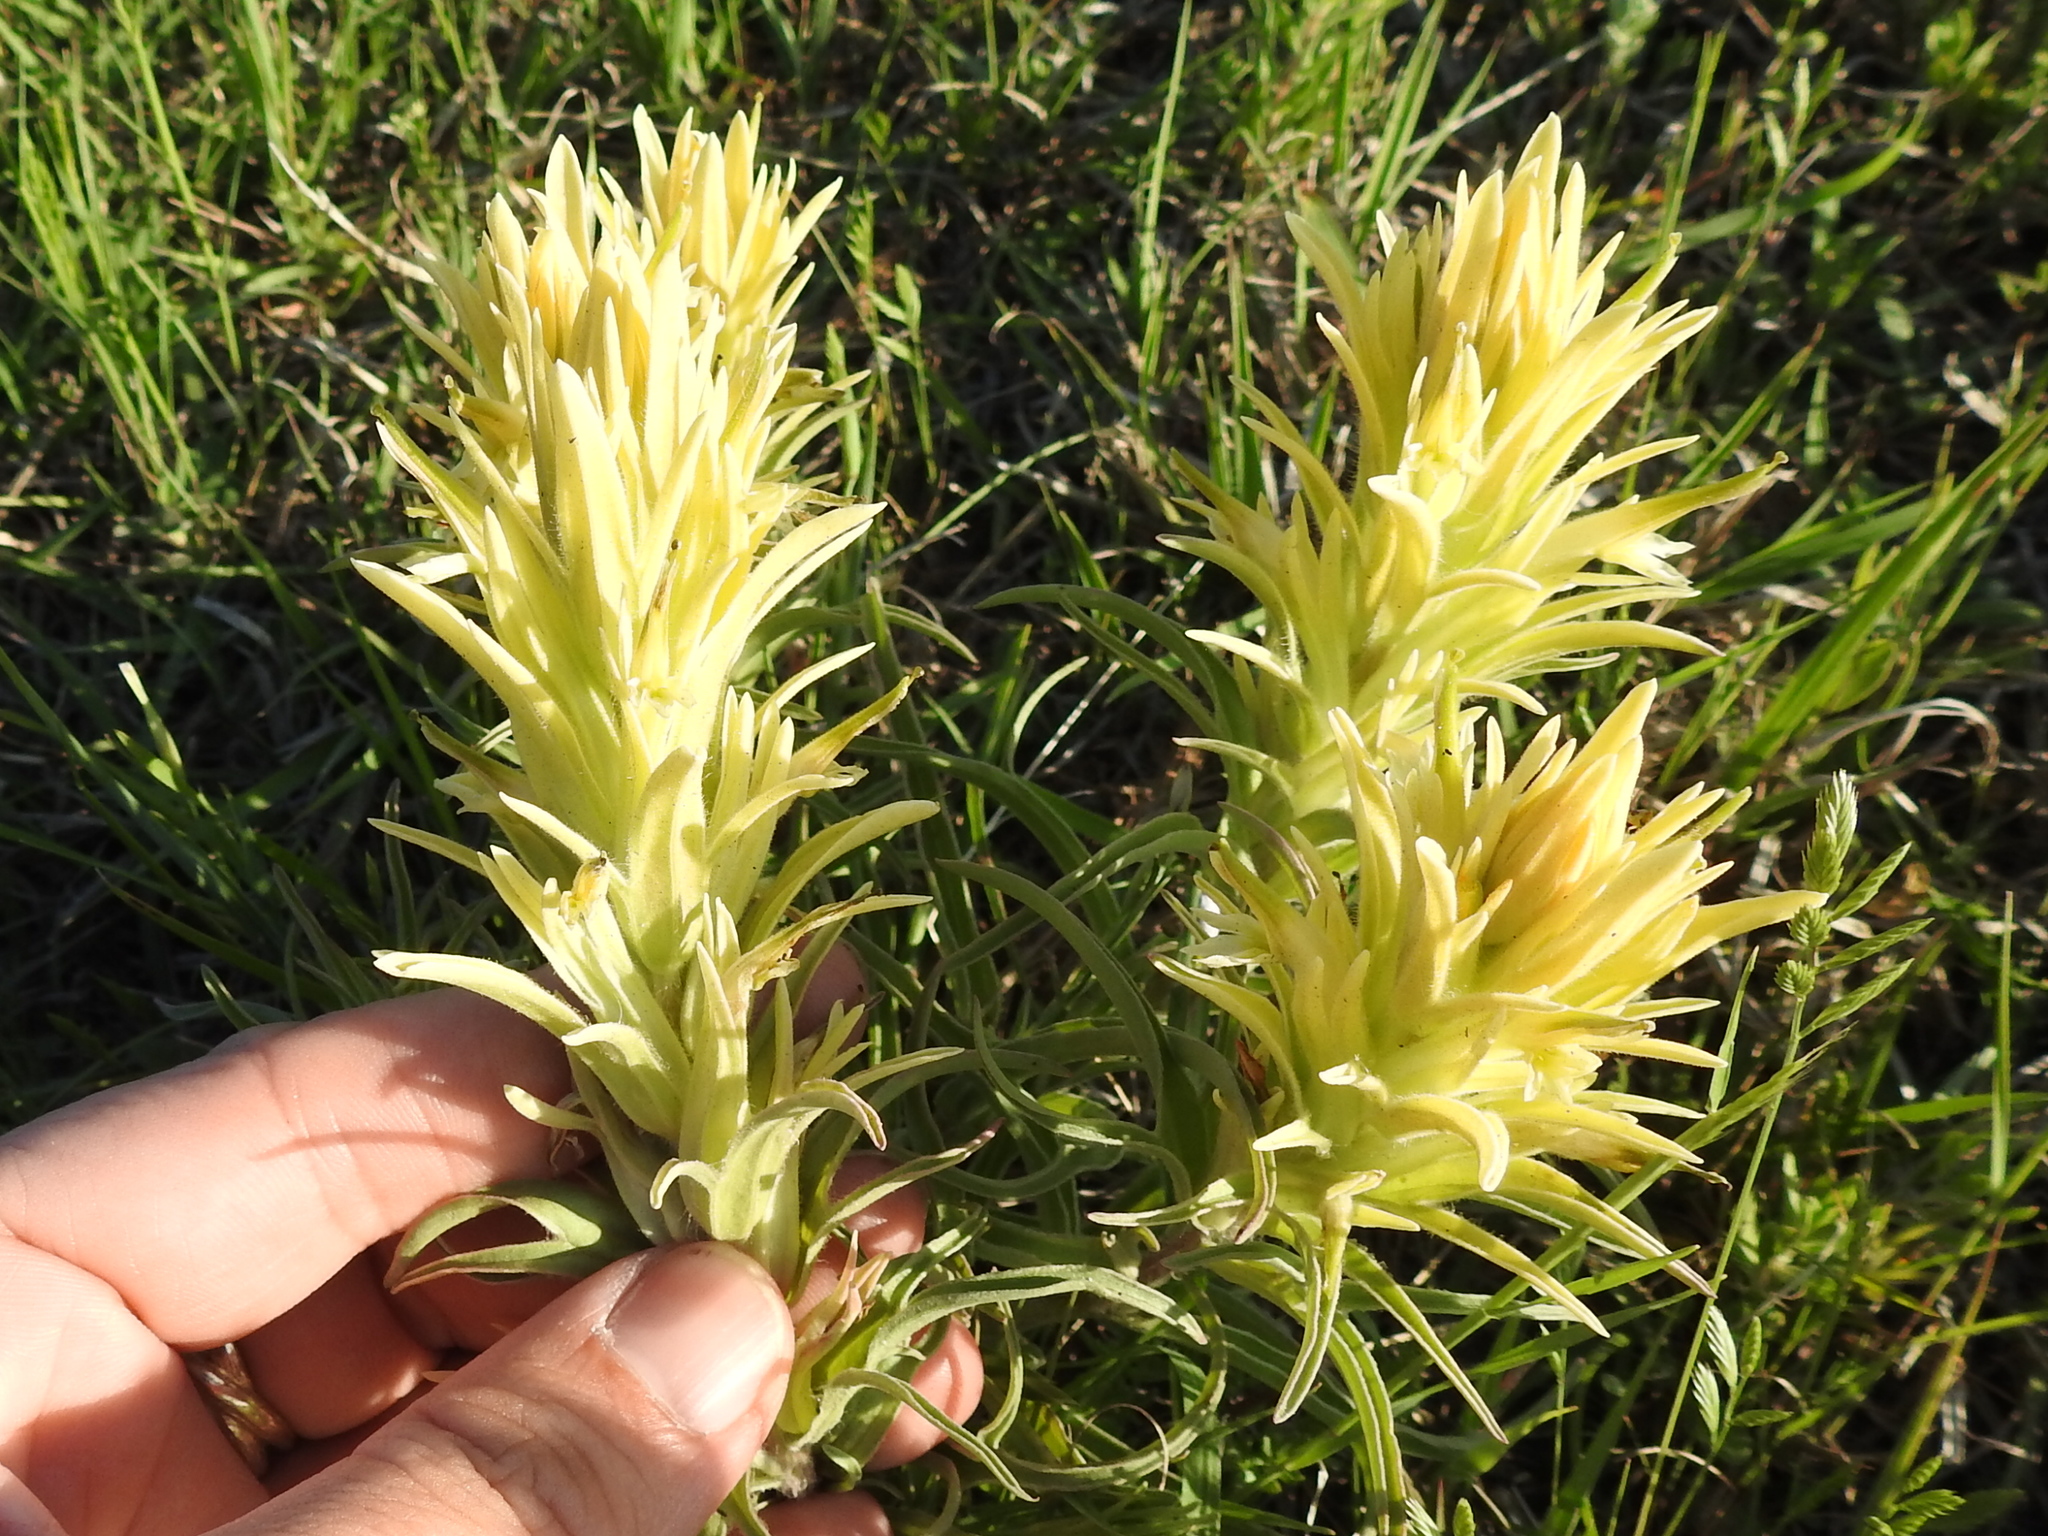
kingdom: Plantae
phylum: Tracheophyta
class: Magnoliopsida
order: Lamiales
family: Orobanchaceae
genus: Castilleja
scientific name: Castilleja citrina
